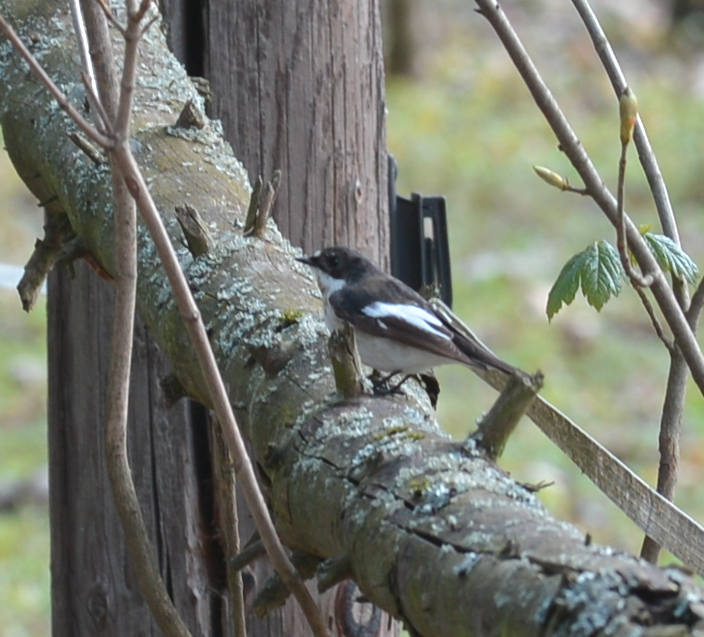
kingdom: Animalia
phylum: Chordata
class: Aves
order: Passeriformes
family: Muscicapidae
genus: Ficedula
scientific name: Ficedula hypoleuca
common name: European pied flycatcher
